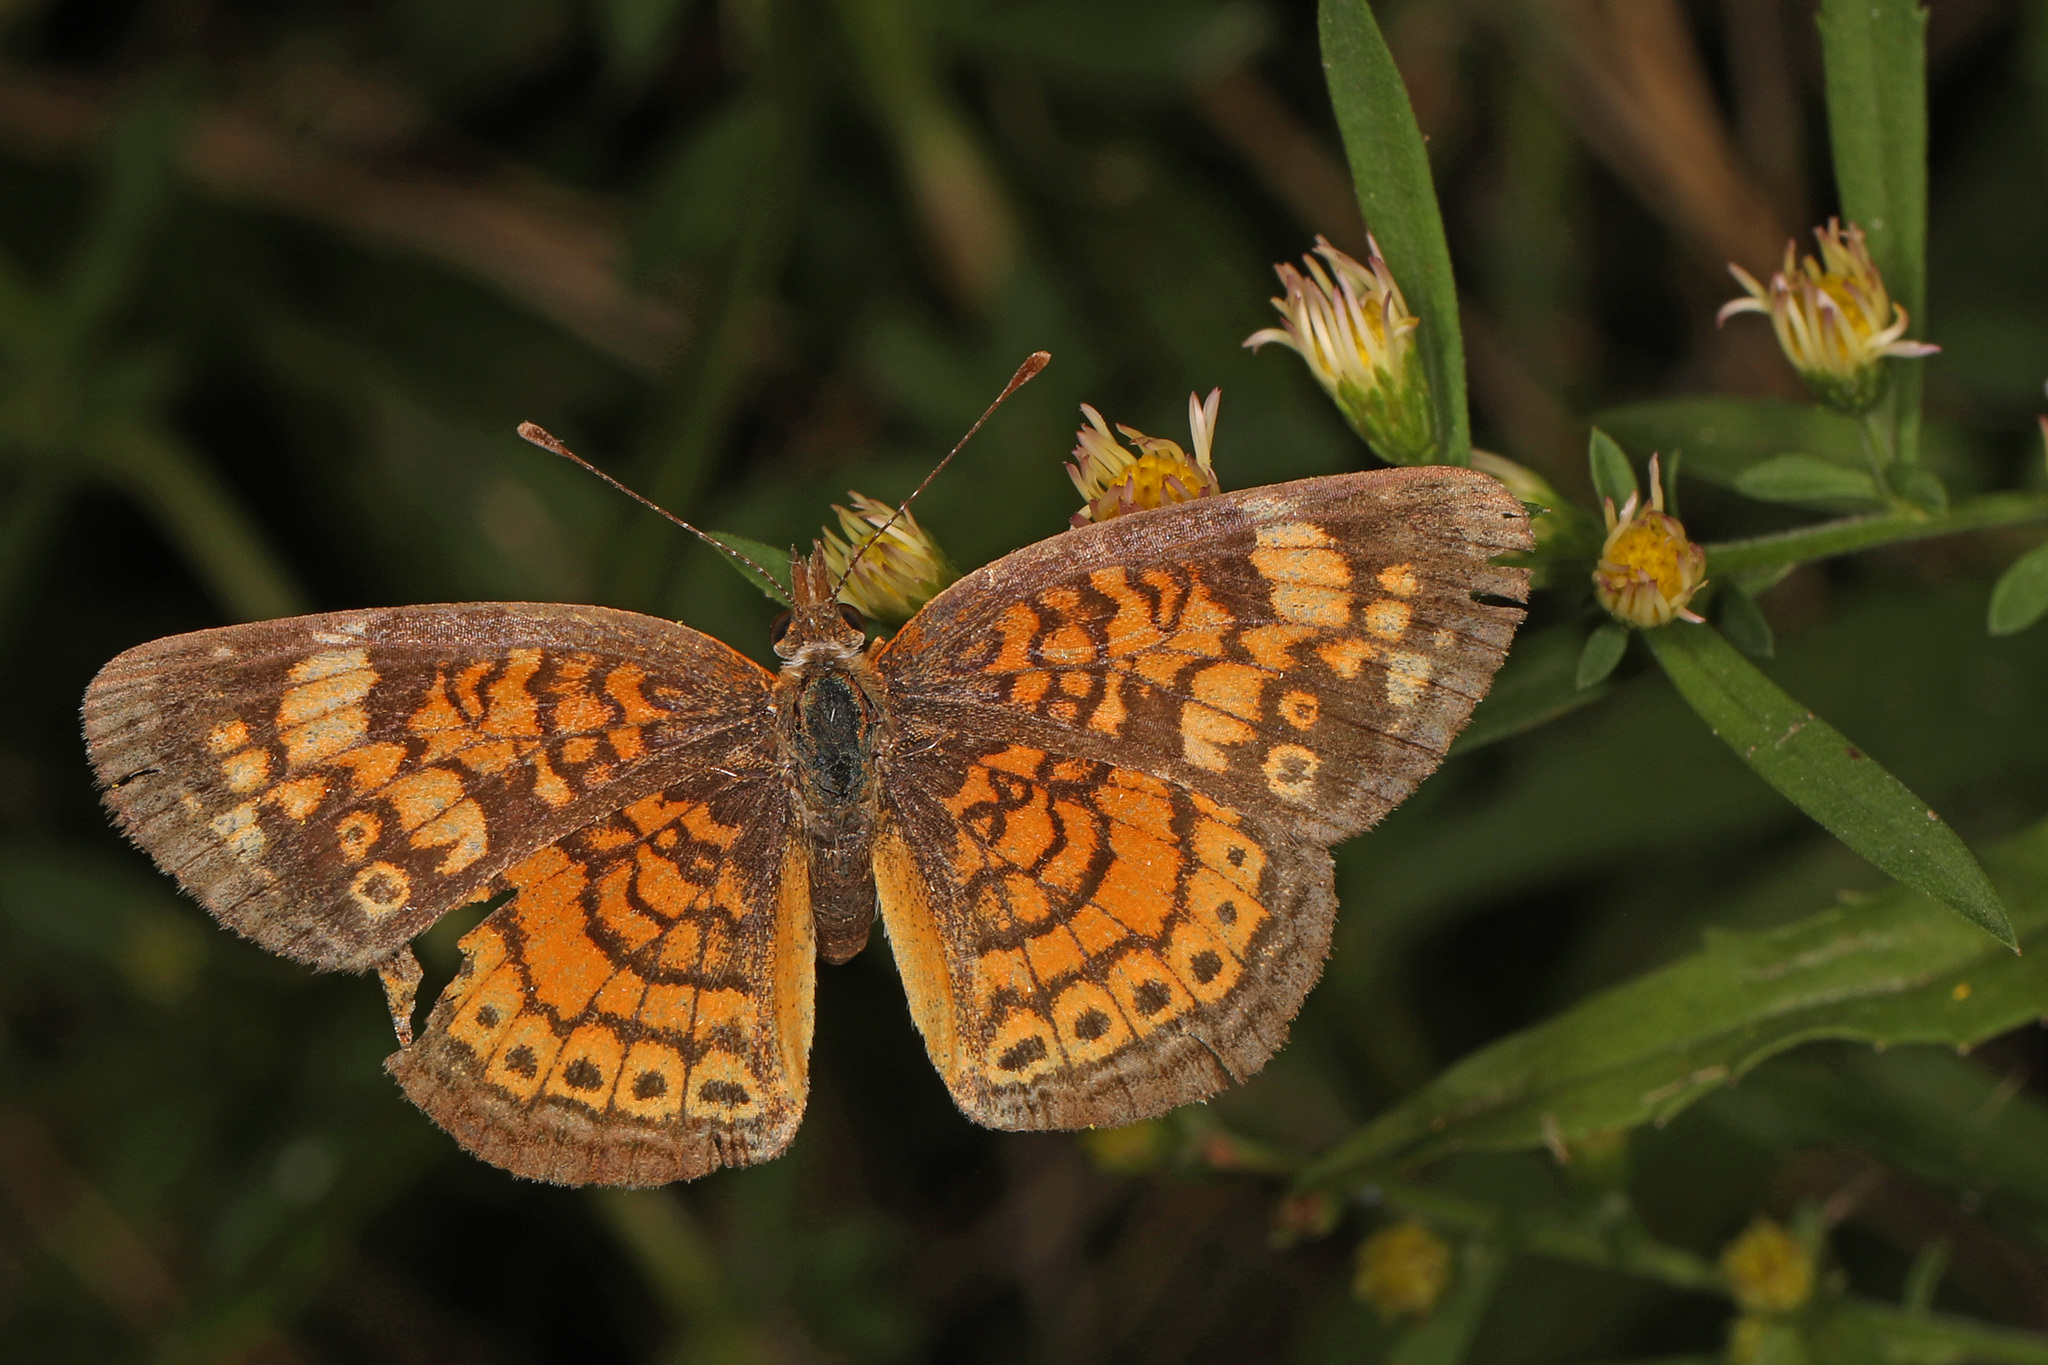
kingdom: Animalia
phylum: Arthropoda
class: Insecta
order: Lepidoptera
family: Nymphalidae
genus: Phyciodes
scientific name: Phyciodes tharos
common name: Pearl crescent
